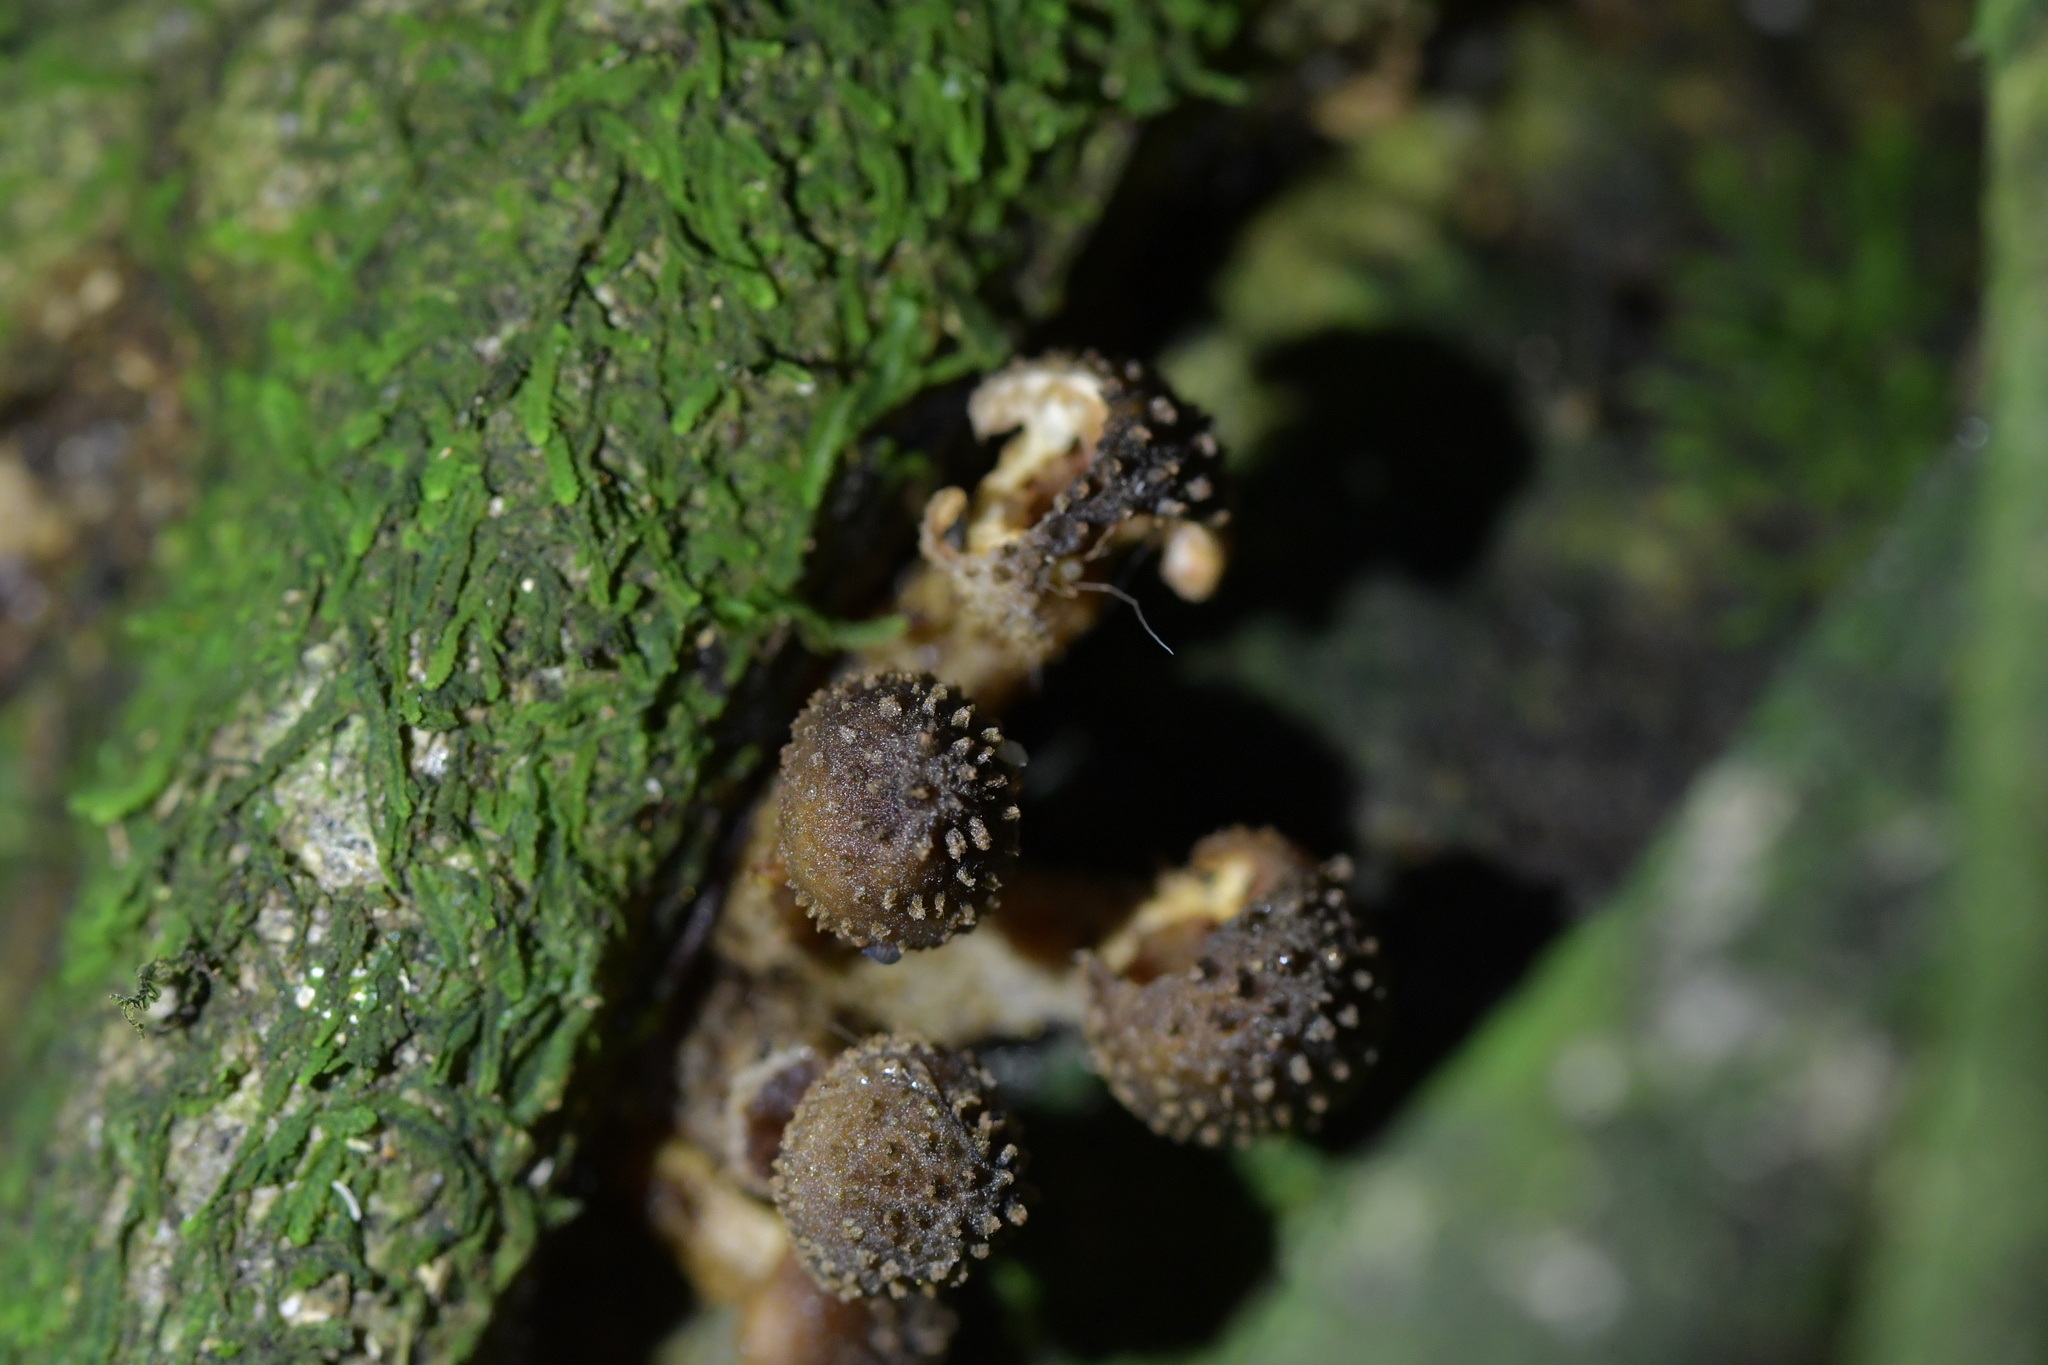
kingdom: Fungi
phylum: Basidiomycota
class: Agaricomycetes
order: Agaricales
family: Physalacriaceae
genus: Armillaria
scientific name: Armillaria novae-zelandiae
